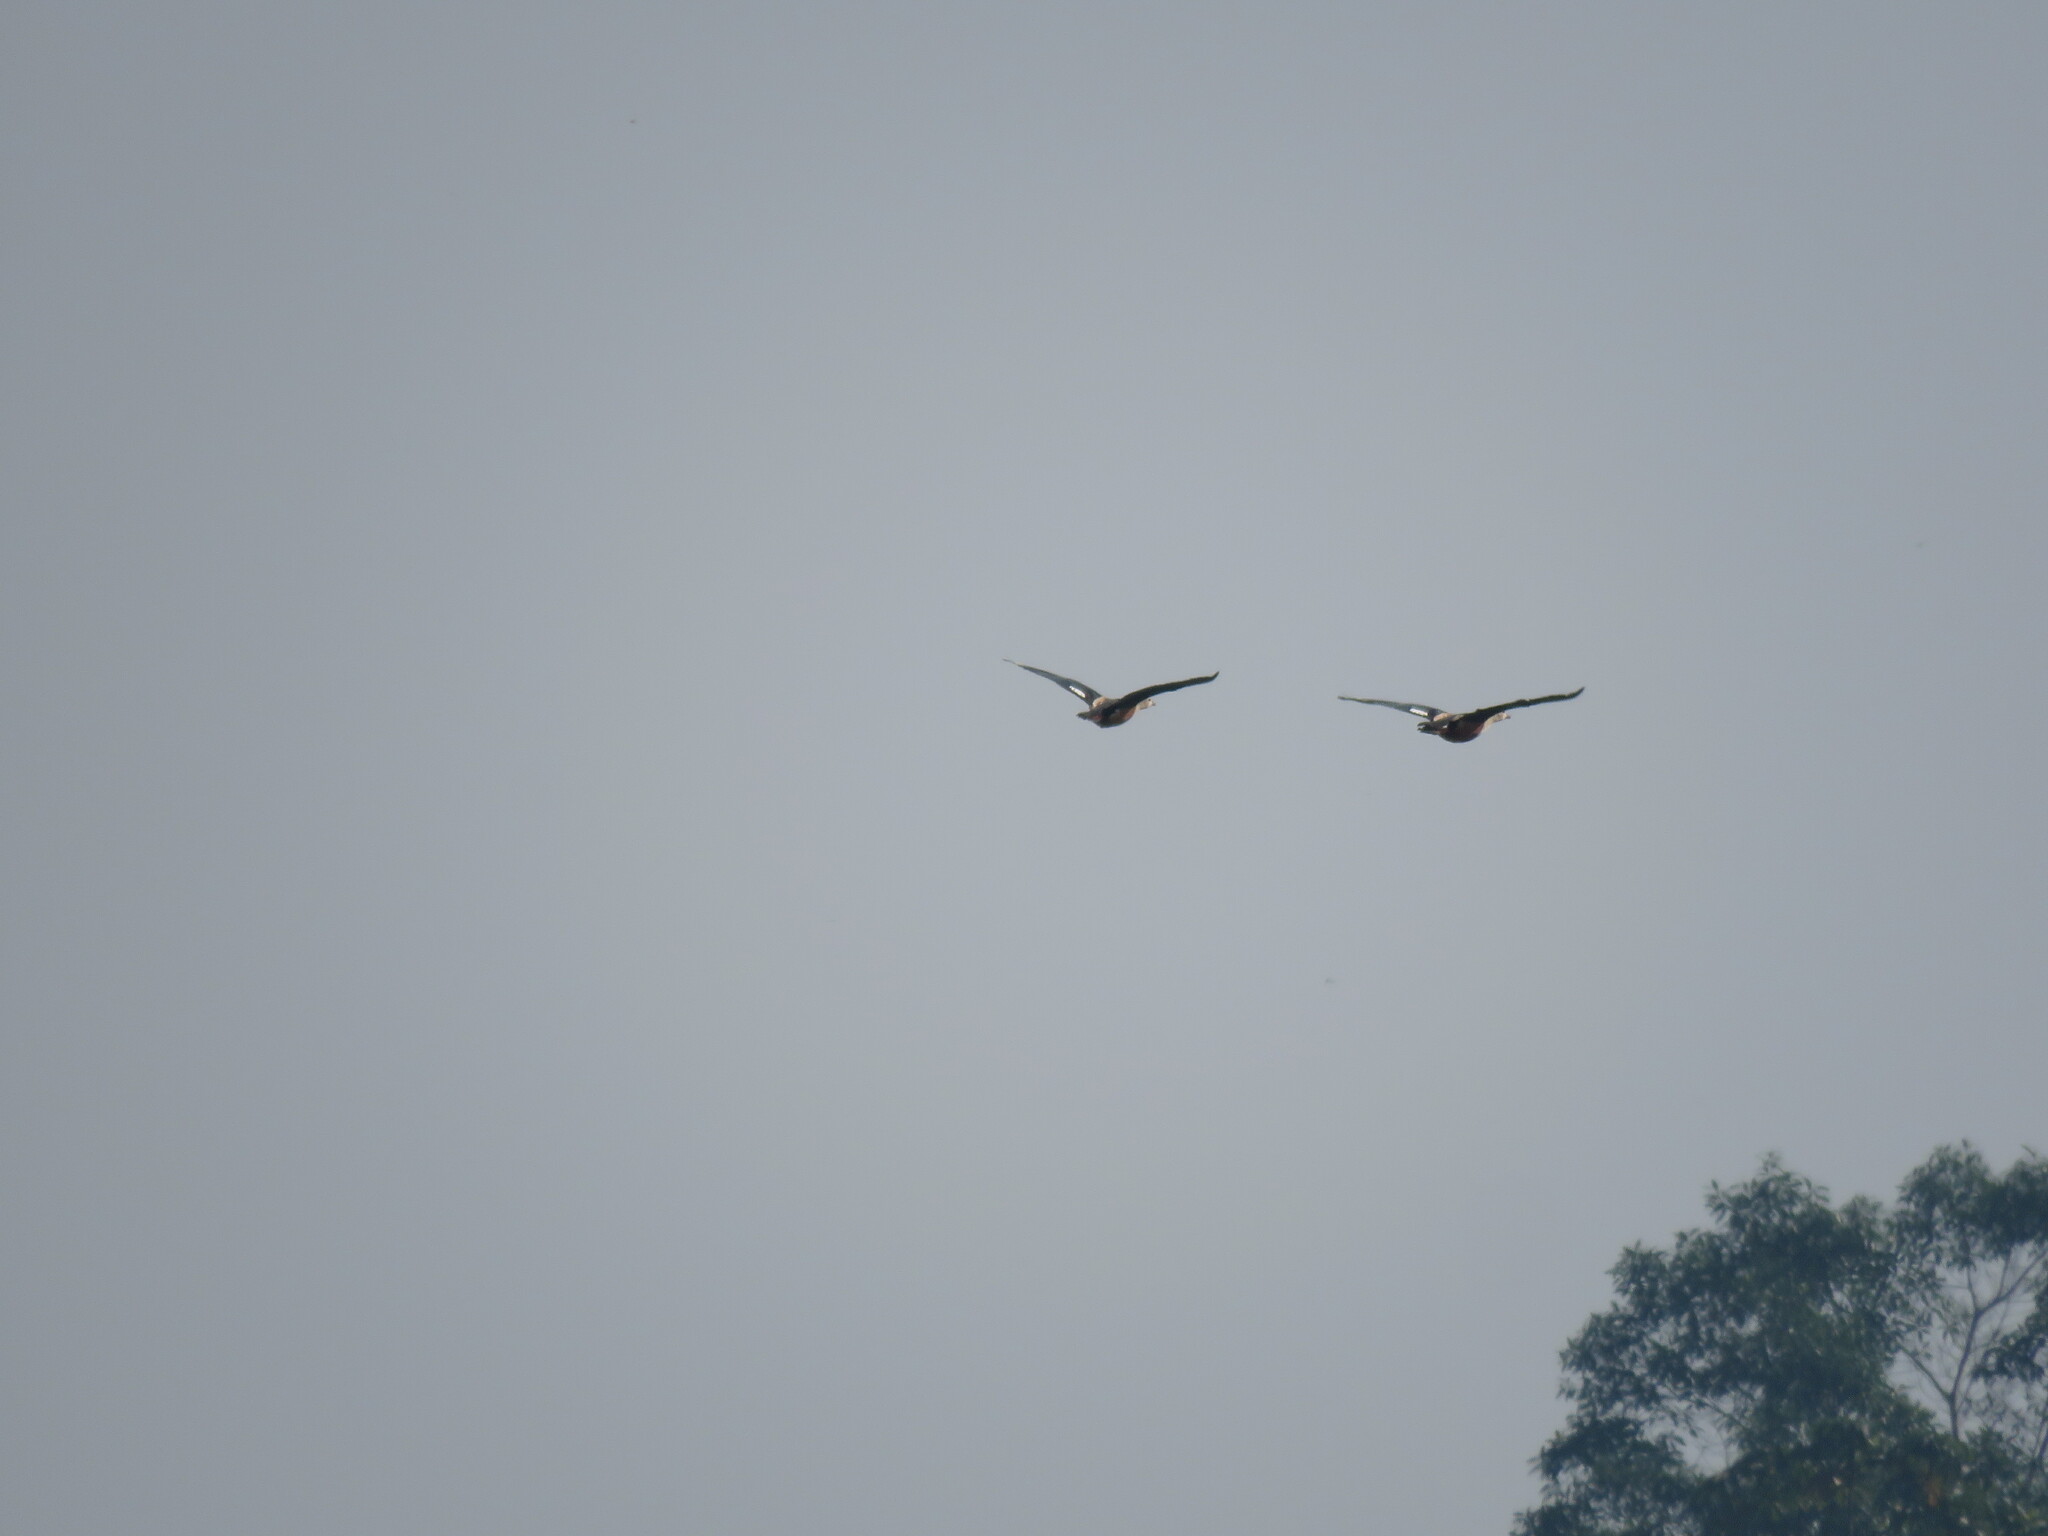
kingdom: Animalia
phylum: Chordata
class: Aves
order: Anseriformes
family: Anatidae
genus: Oressochen
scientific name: Oressochen jubatus
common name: Orinoco goose
